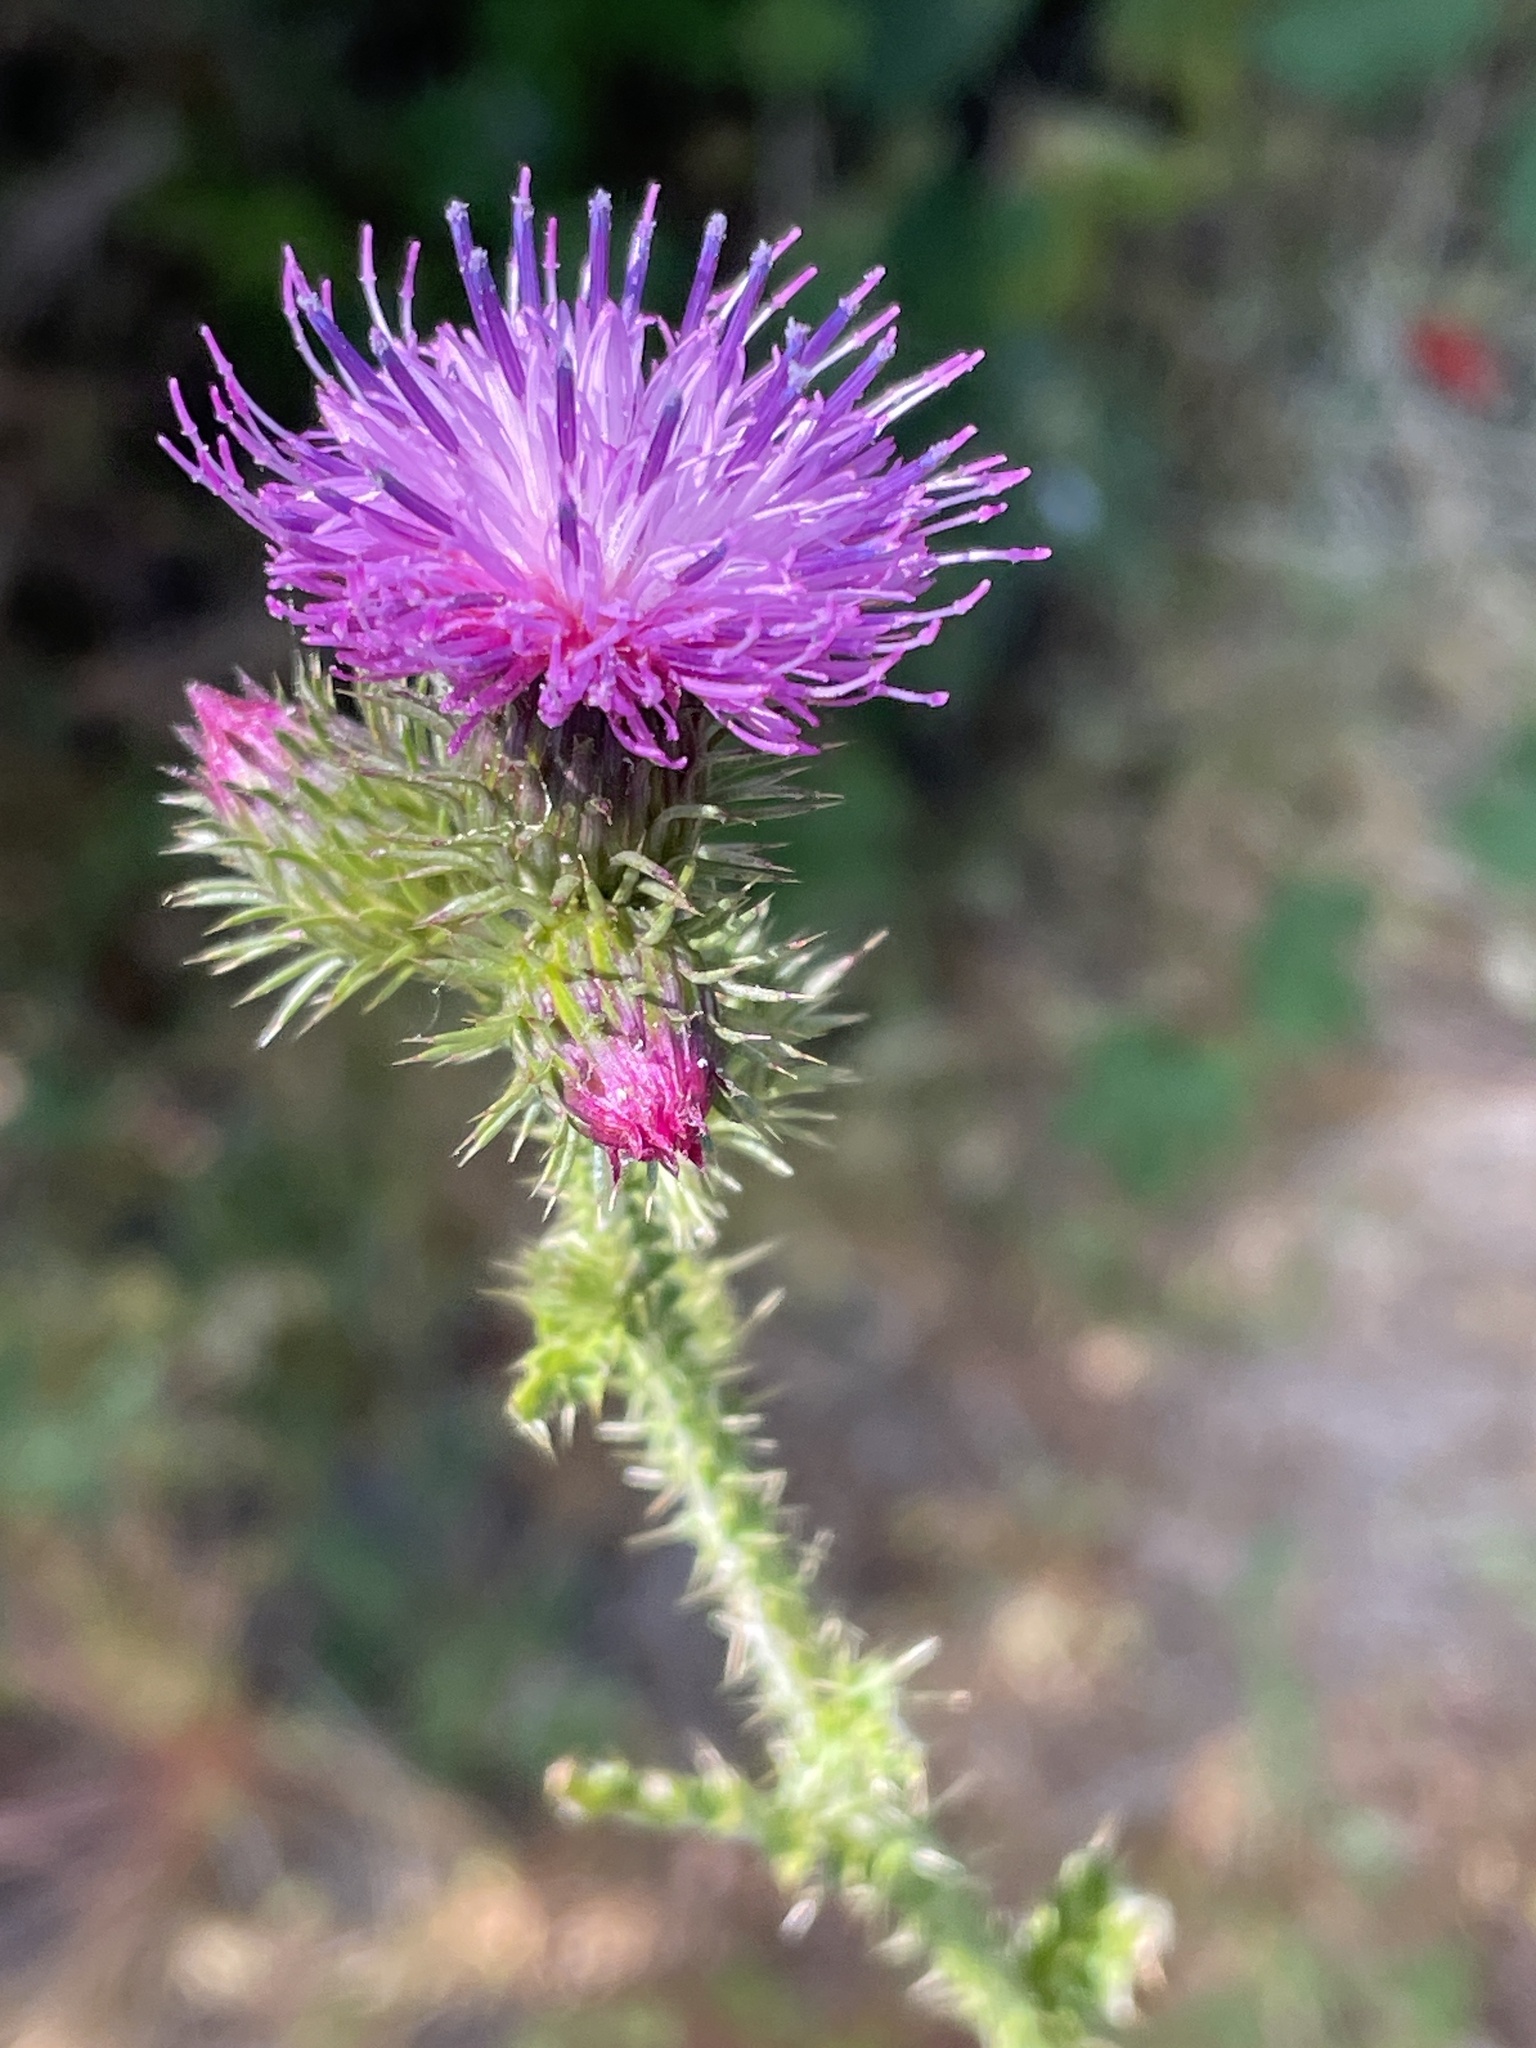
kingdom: Plantae
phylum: Tracheophyta
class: Magnoliopsida
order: Asterales
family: Asteraceae
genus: Carduus
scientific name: Carduus crispus
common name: Welted thistle
